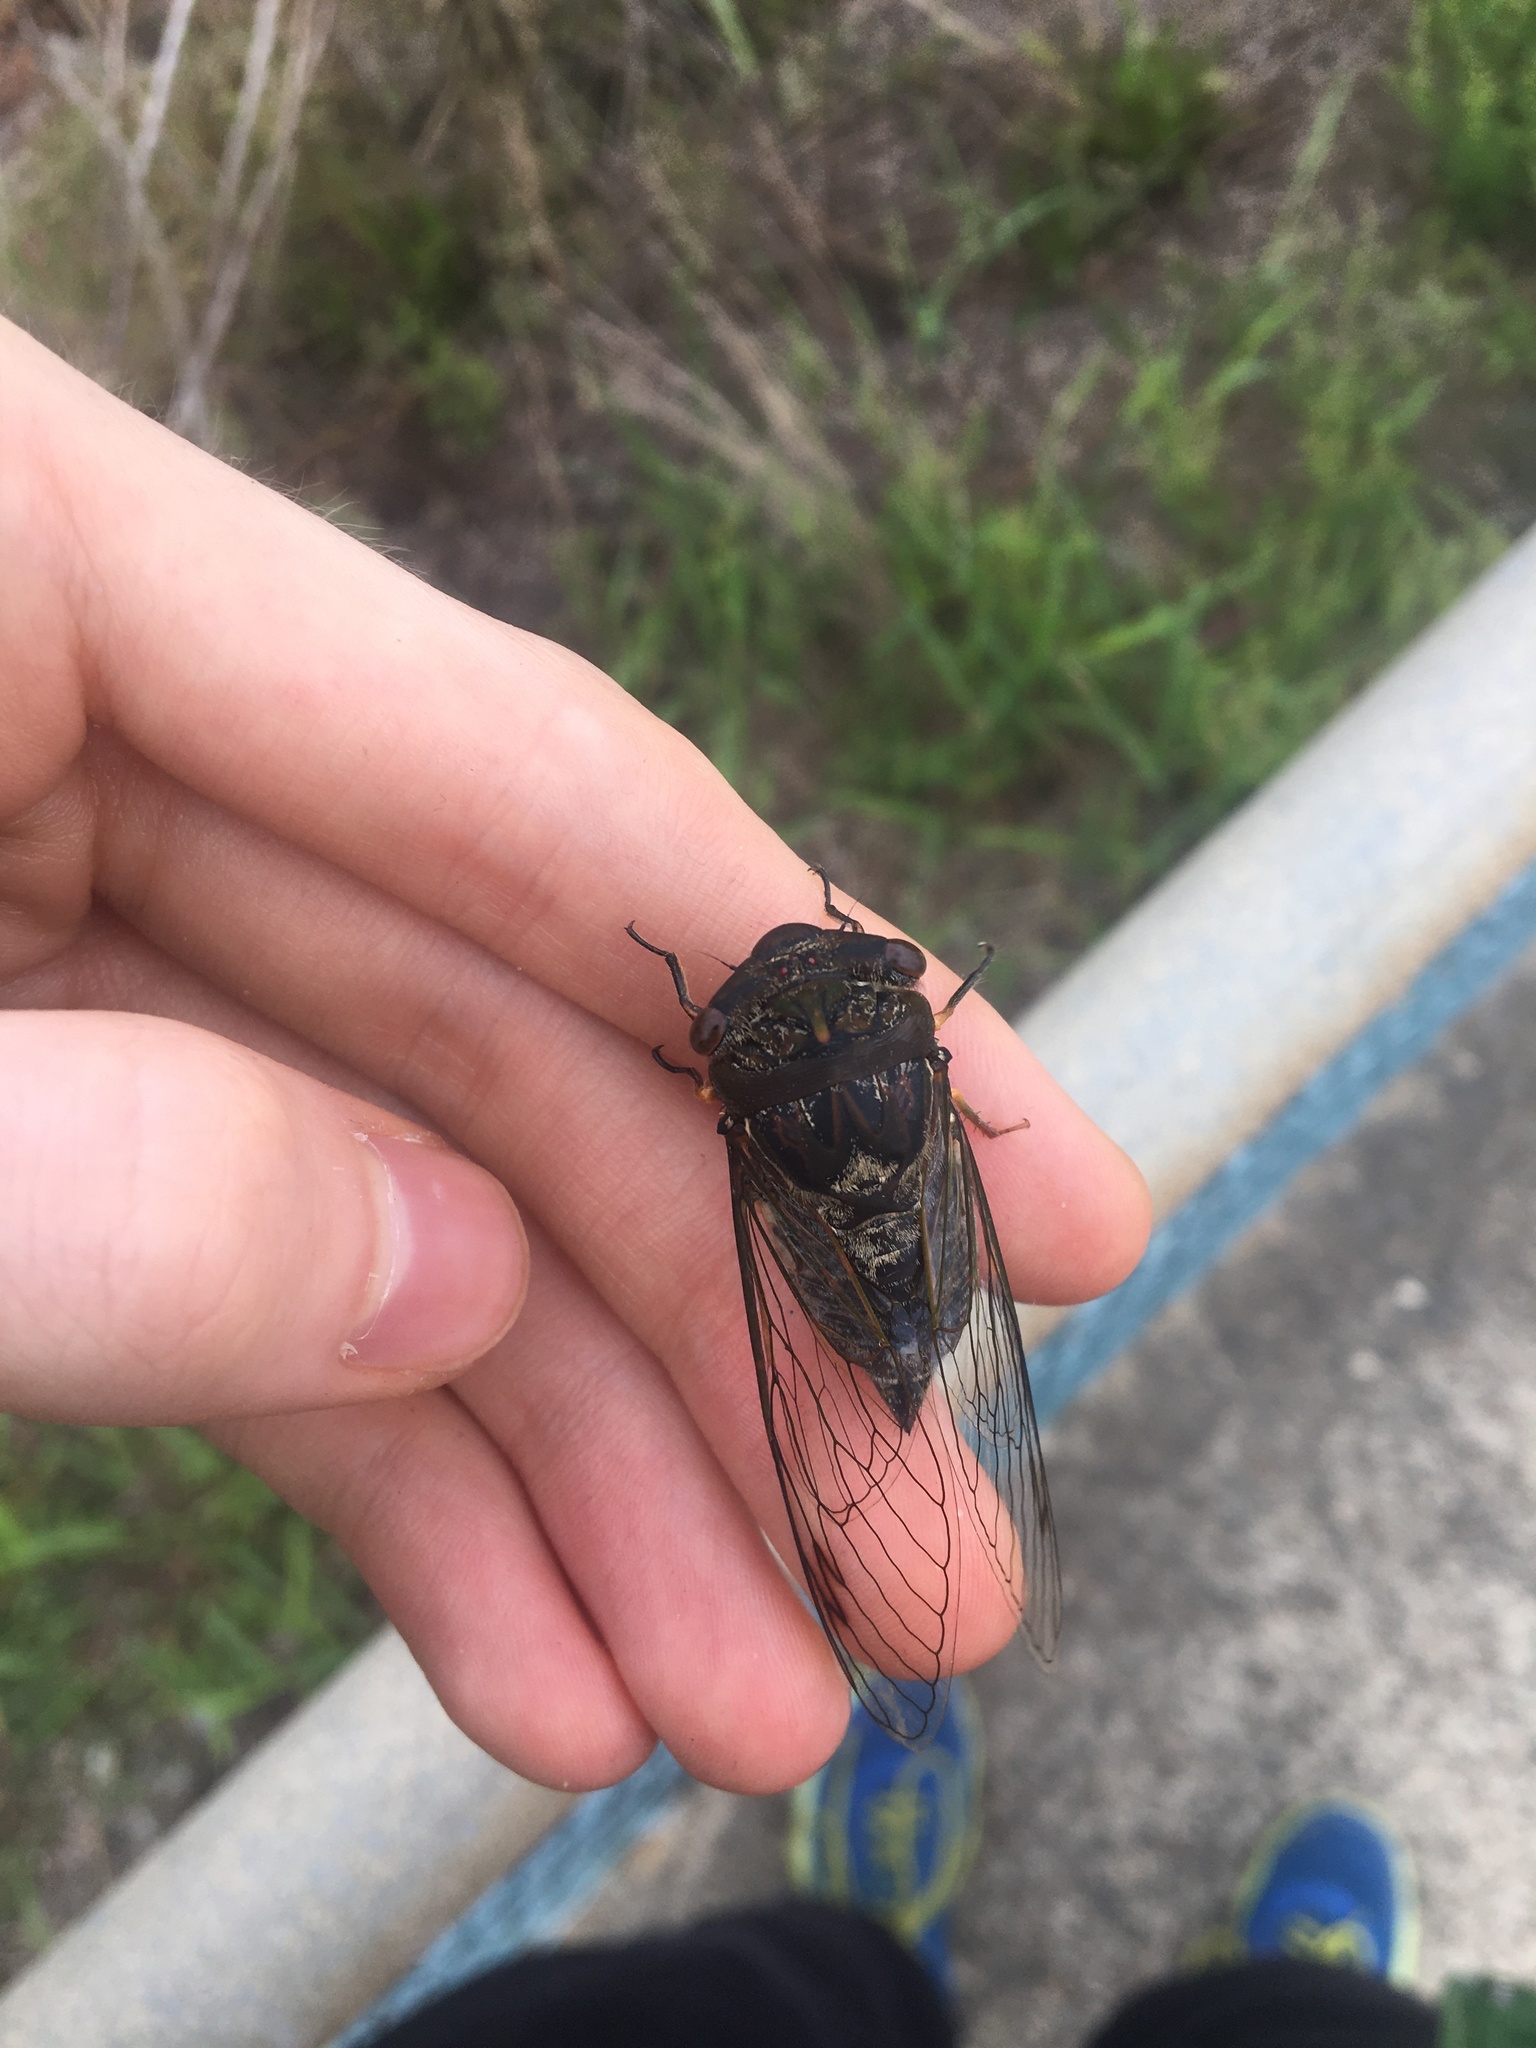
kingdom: Animalia
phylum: Arthropoda
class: Insecta
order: Hemiptera
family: Cicadidae
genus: Psaltoda
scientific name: Psaltoda plaga
